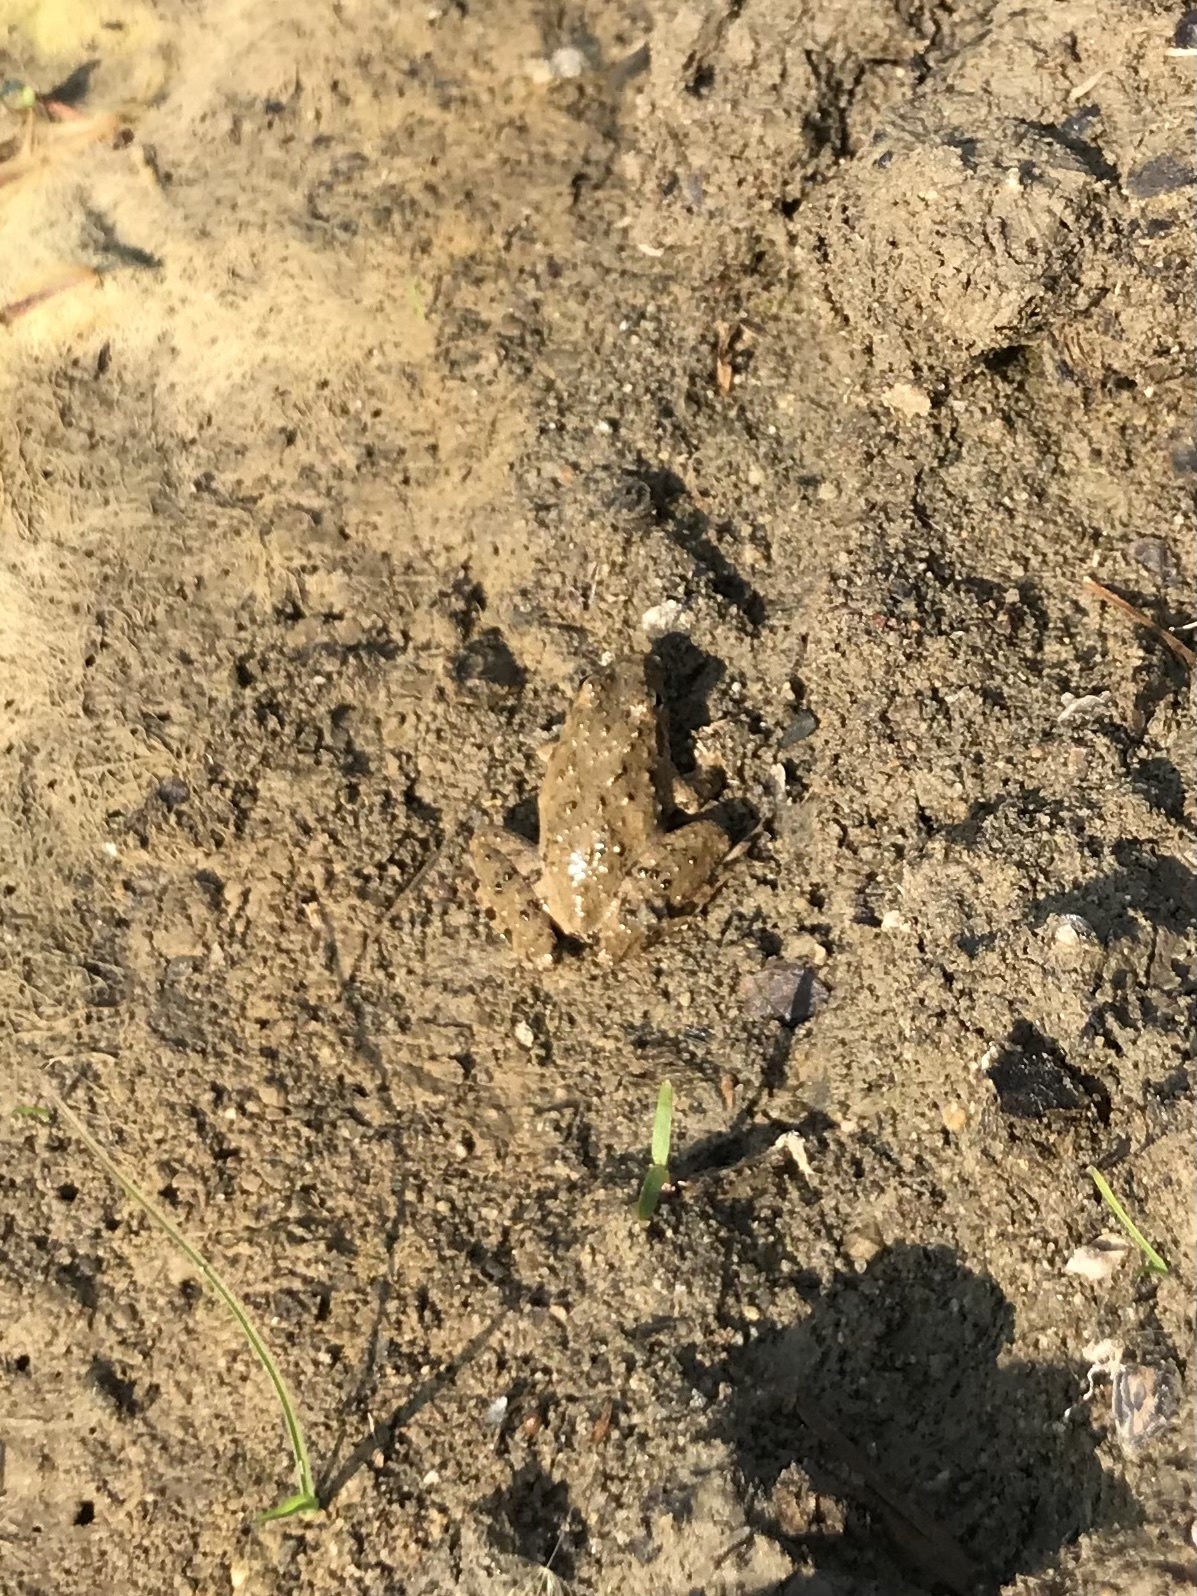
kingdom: Animalia
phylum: Chordata
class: Amphibia
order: Anura
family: Hylidae
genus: Acris
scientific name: Acris blanchardi
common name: Blanchard's cricket frog
